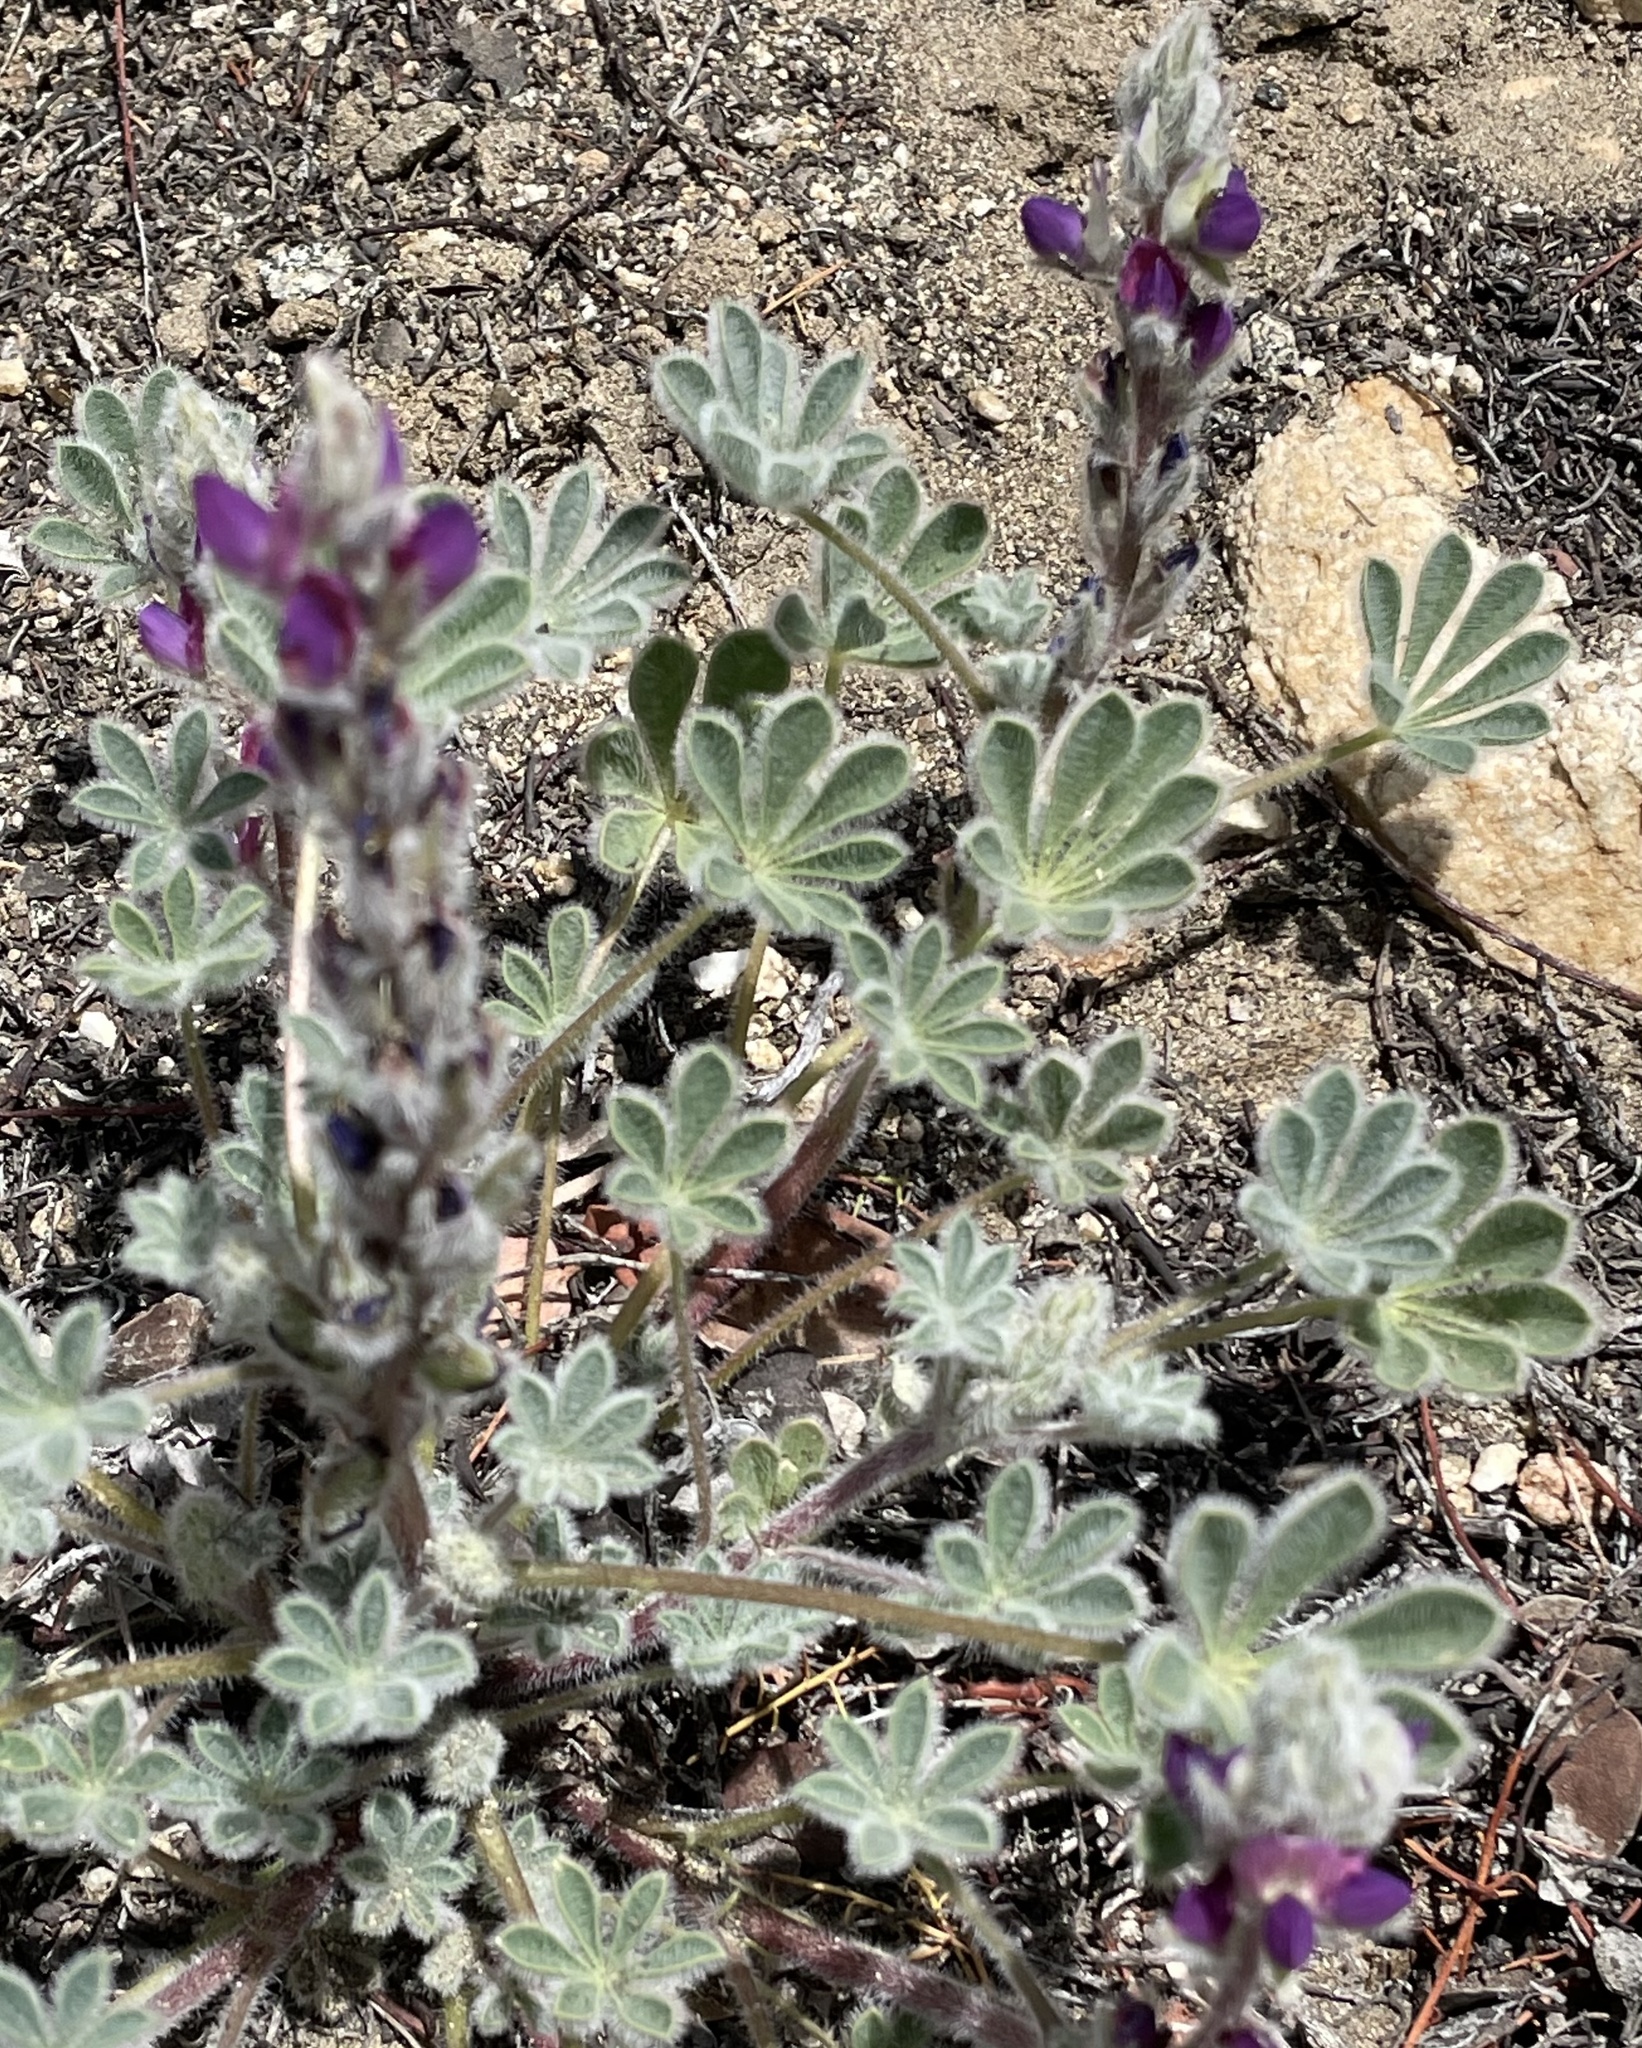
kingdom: Plantae
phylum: Tracheophyta
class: Magnoliopsida
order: Fabales
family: Fabaceae
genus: Lupinus
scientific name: Lupinus concinnus
